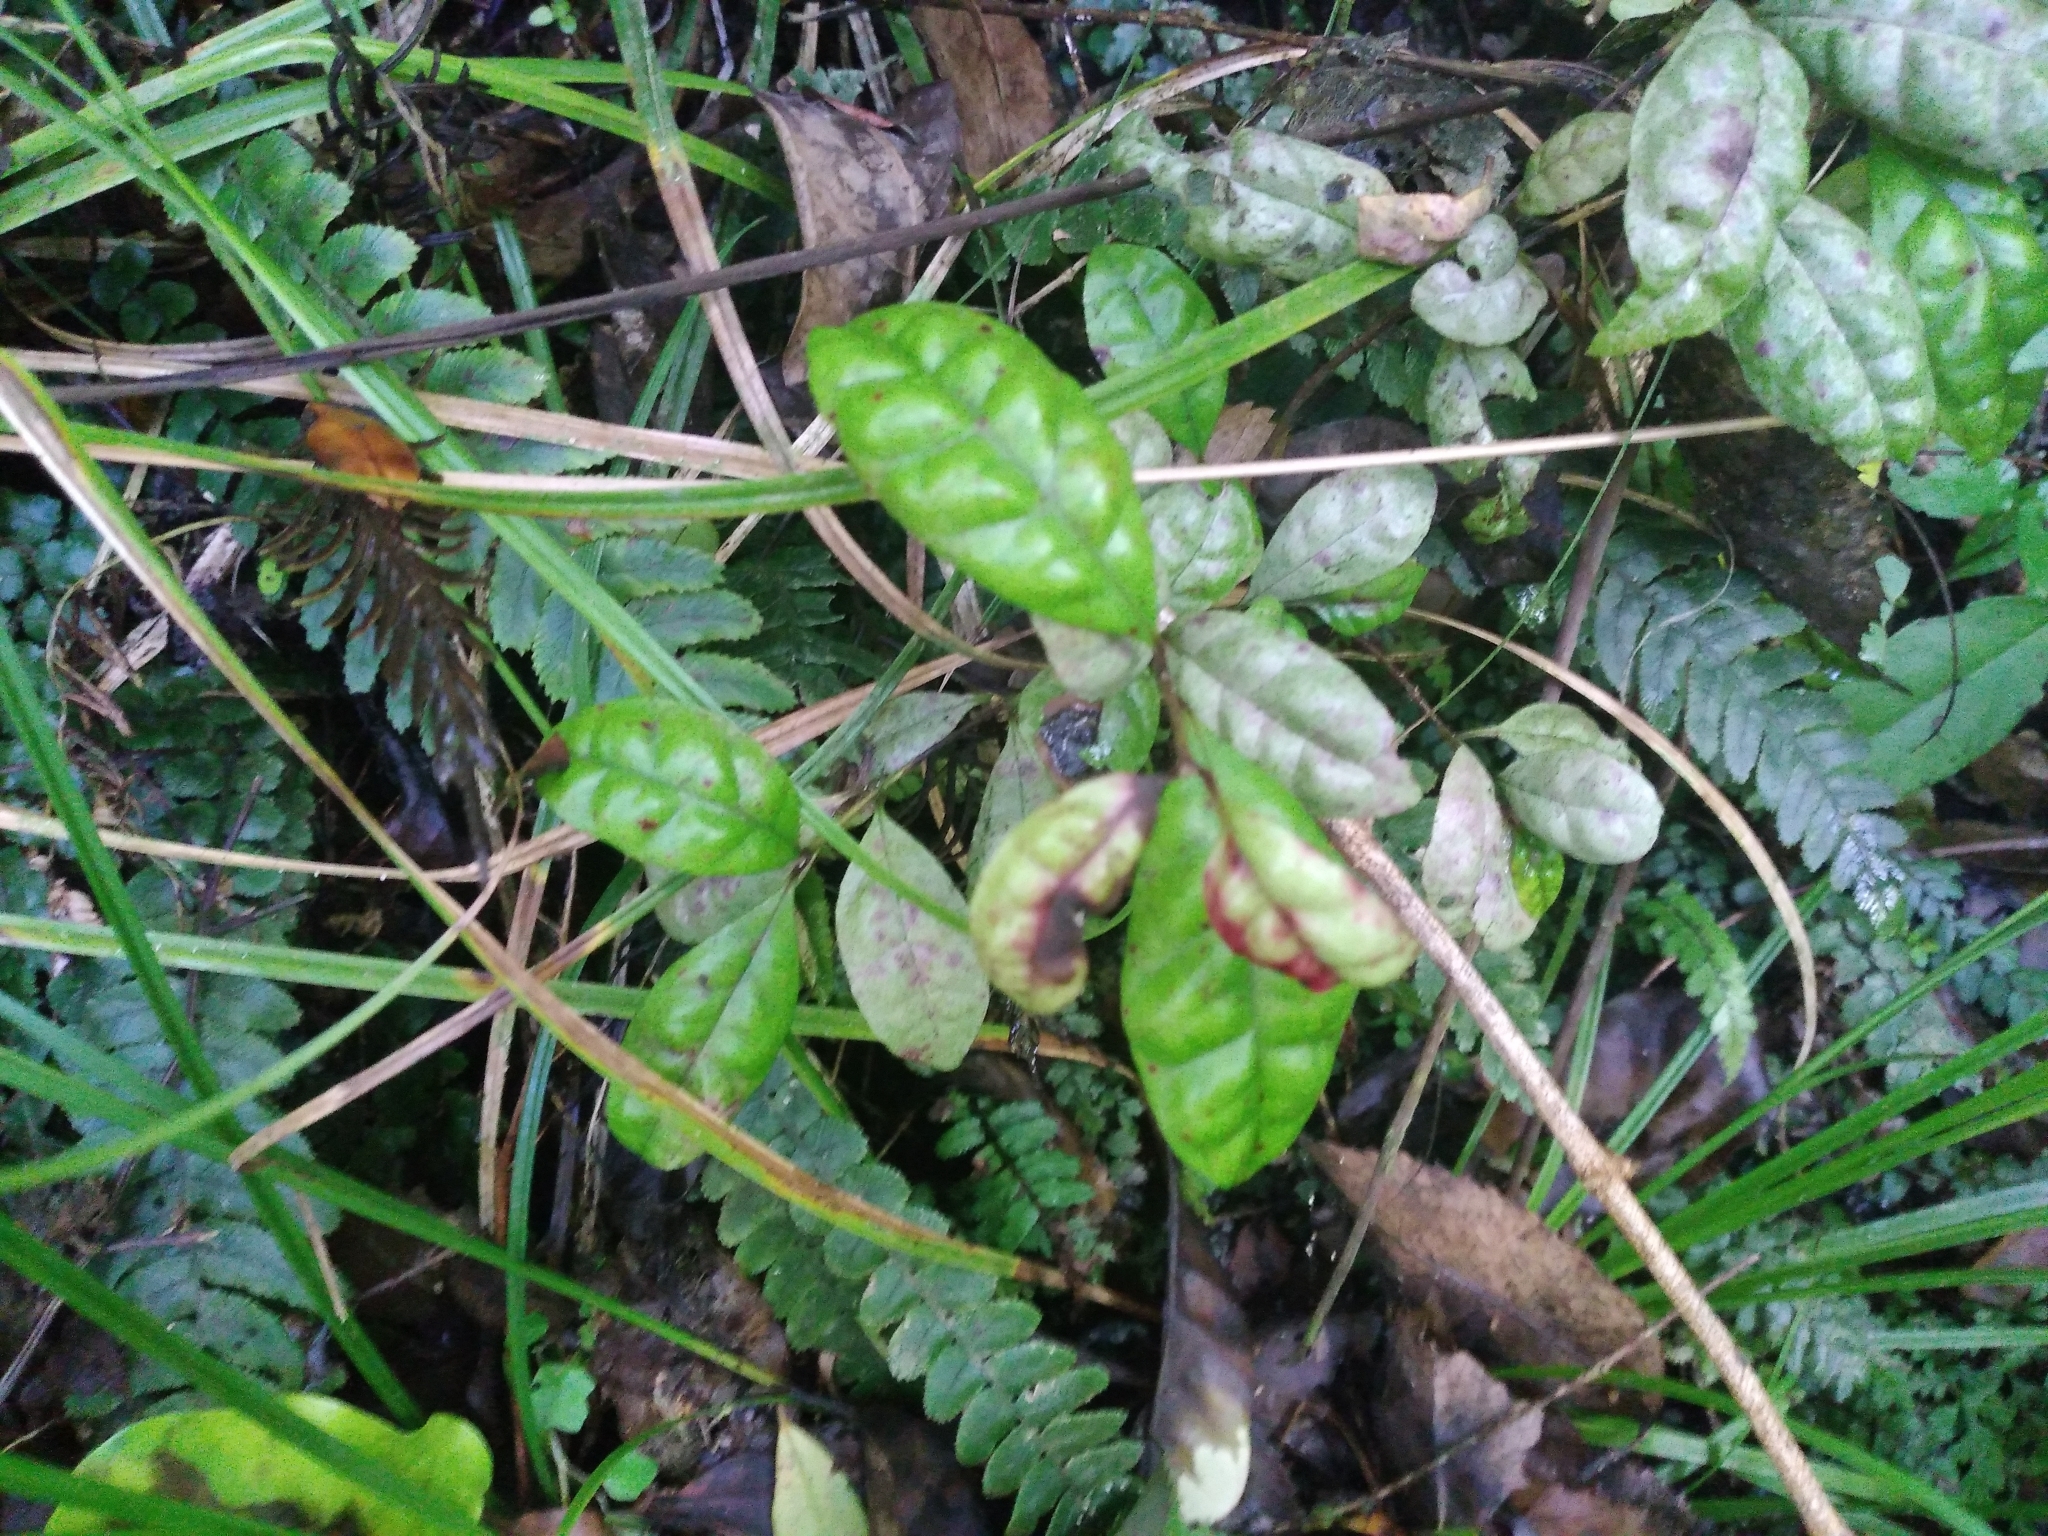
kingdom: Plantae
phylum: Tracheophyta
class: Magnoliopsida
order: Myrtales
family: Myrtaceae
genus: Lophomyrtus
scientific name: Lophomyrtus bullata
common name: Rama rama
